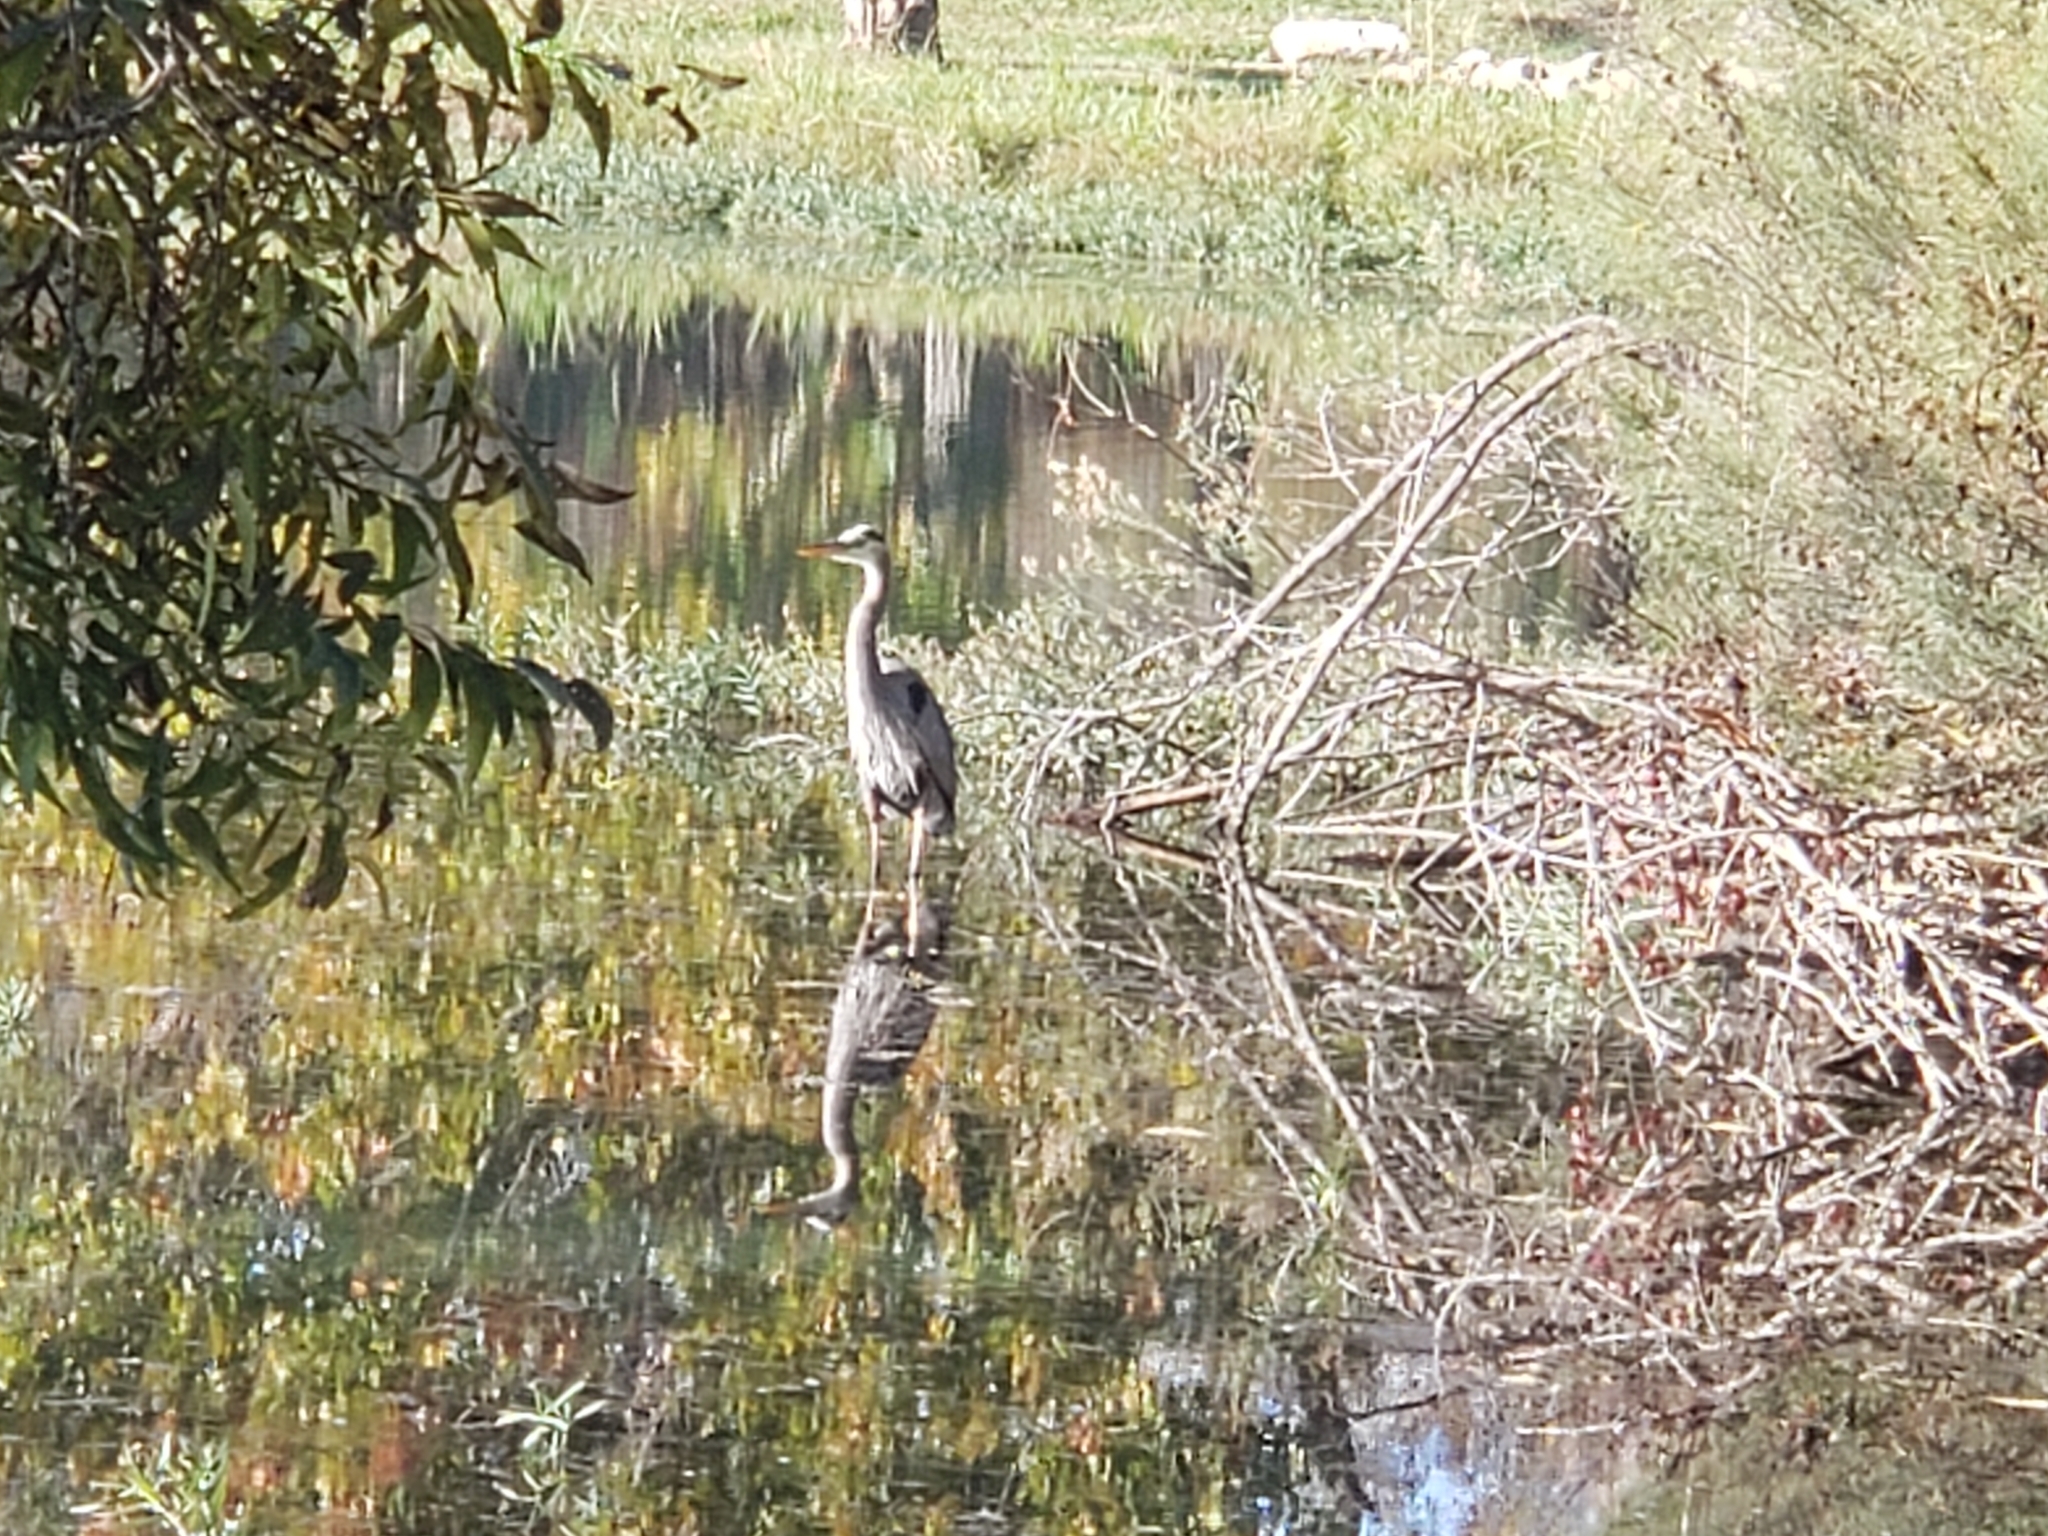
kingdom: Animalia
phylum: Chordata
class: Aves
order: Pelecaniformes
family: Ardeidae
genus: Ardea
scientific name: Ardea herodias
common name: Great blue heron
